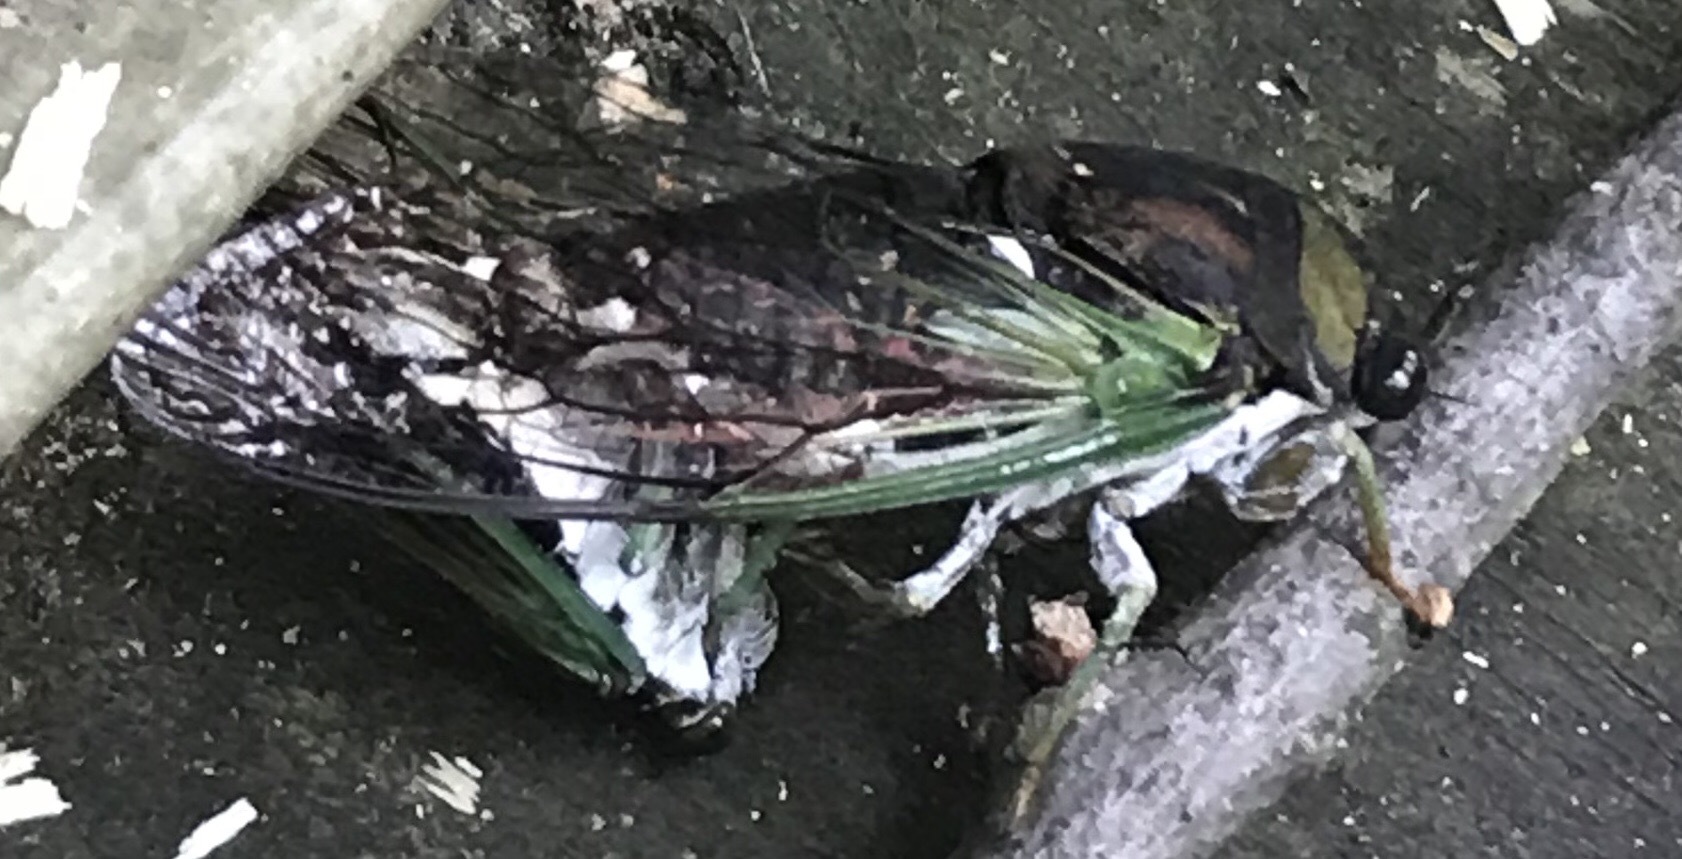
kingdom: Animalia
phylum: Arthropoda
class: Insecta
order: Hemiptera
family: Cicadidae
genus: Neotibicen
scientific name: Neotibicen tibicen
